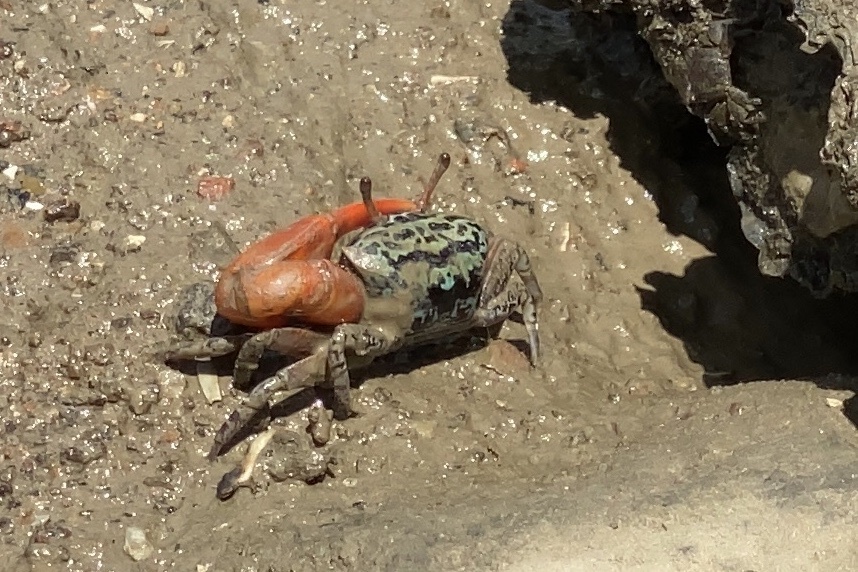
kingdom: Animalia
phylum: Arthropoda
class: Malacostraca
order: Decapoda
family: Ocypodidae
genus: Paraleptuca
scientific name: Paraleptuca splendida
